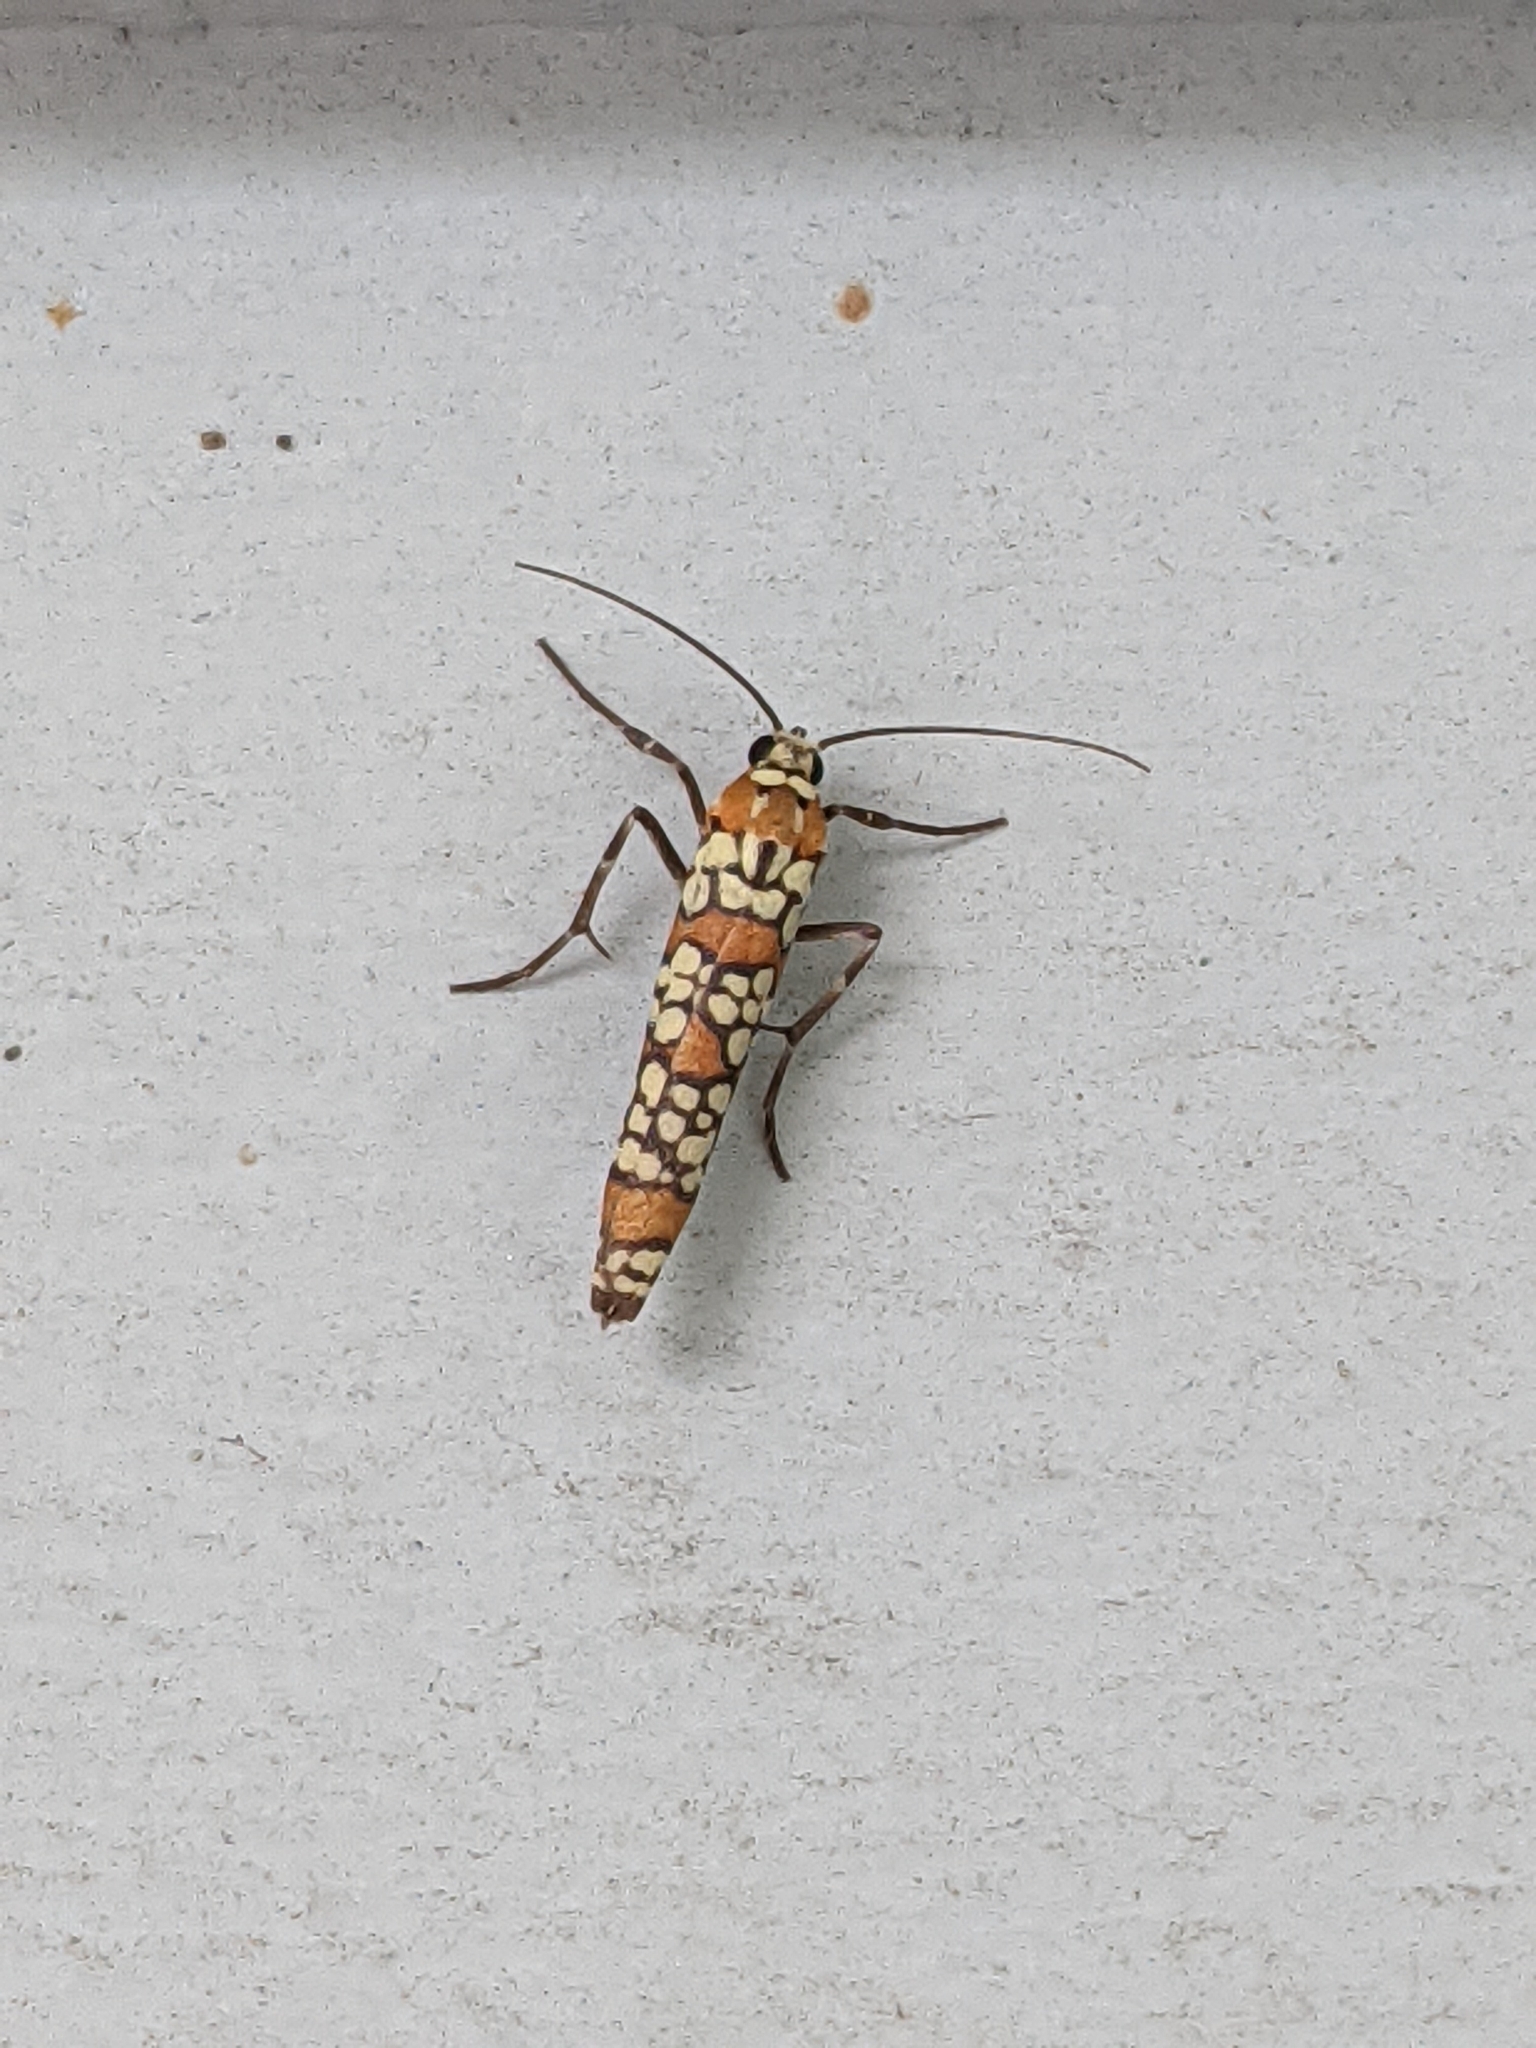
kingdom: Animalia
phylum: Arthropoda
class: Insecta
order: Lepidoptera
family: Attevidae
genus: Atteva
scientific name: Atteva punctella
